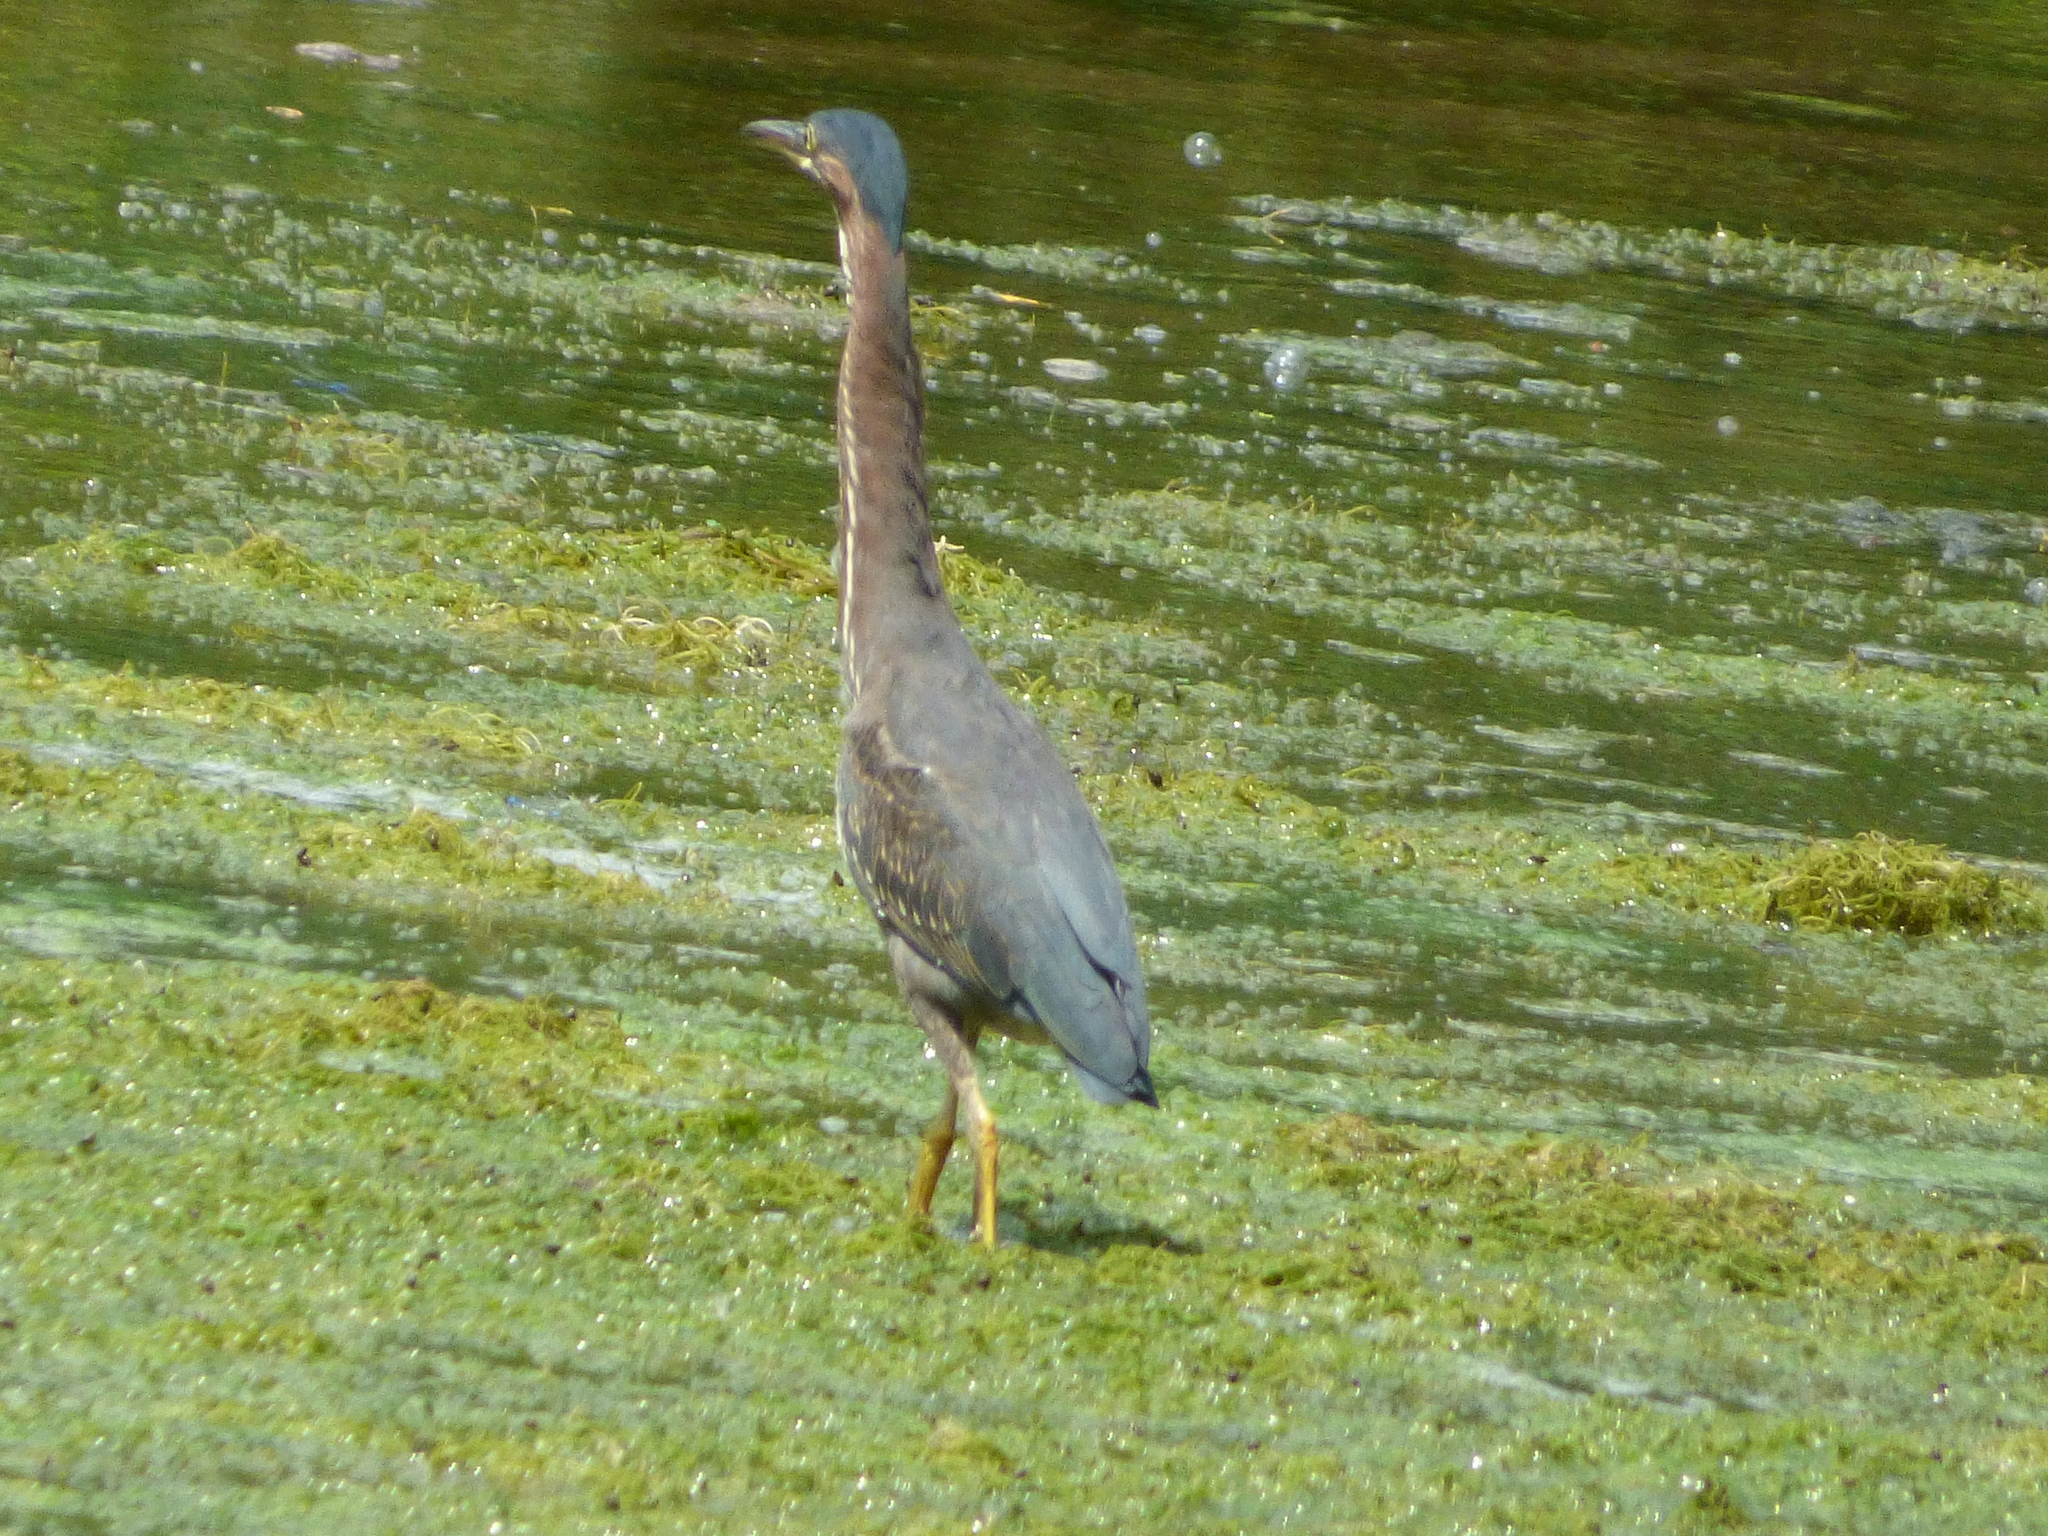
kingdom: Animalia
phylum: Chordata
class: Aves
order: Pelecaniformes
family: Ardeidae
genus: Butorides
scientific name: Butorides virescens
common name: Green heron
